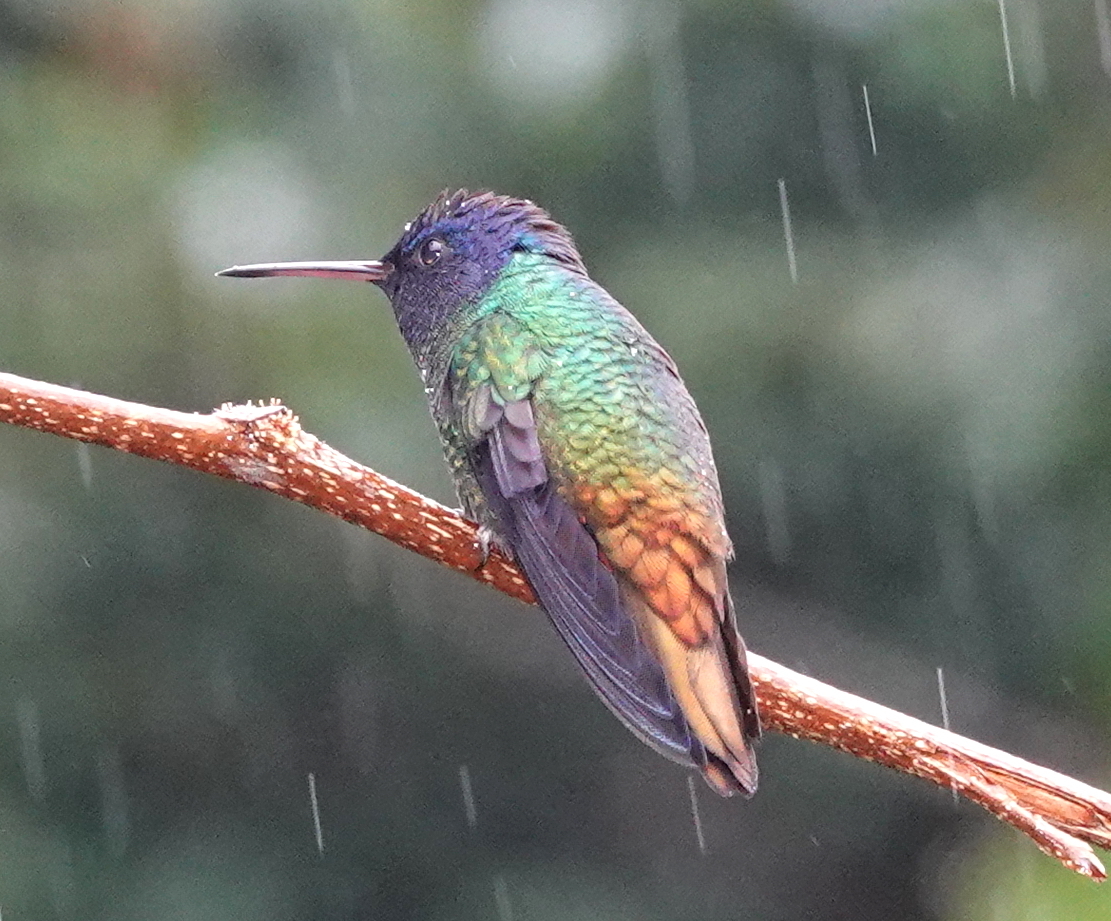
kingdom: Animalia
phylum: Chordata
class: Aves
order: Apodiformes
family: Trochilidae
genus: Chrysuronia
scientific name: Chrysuronia oenone
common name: Golden-tailed sapphire
